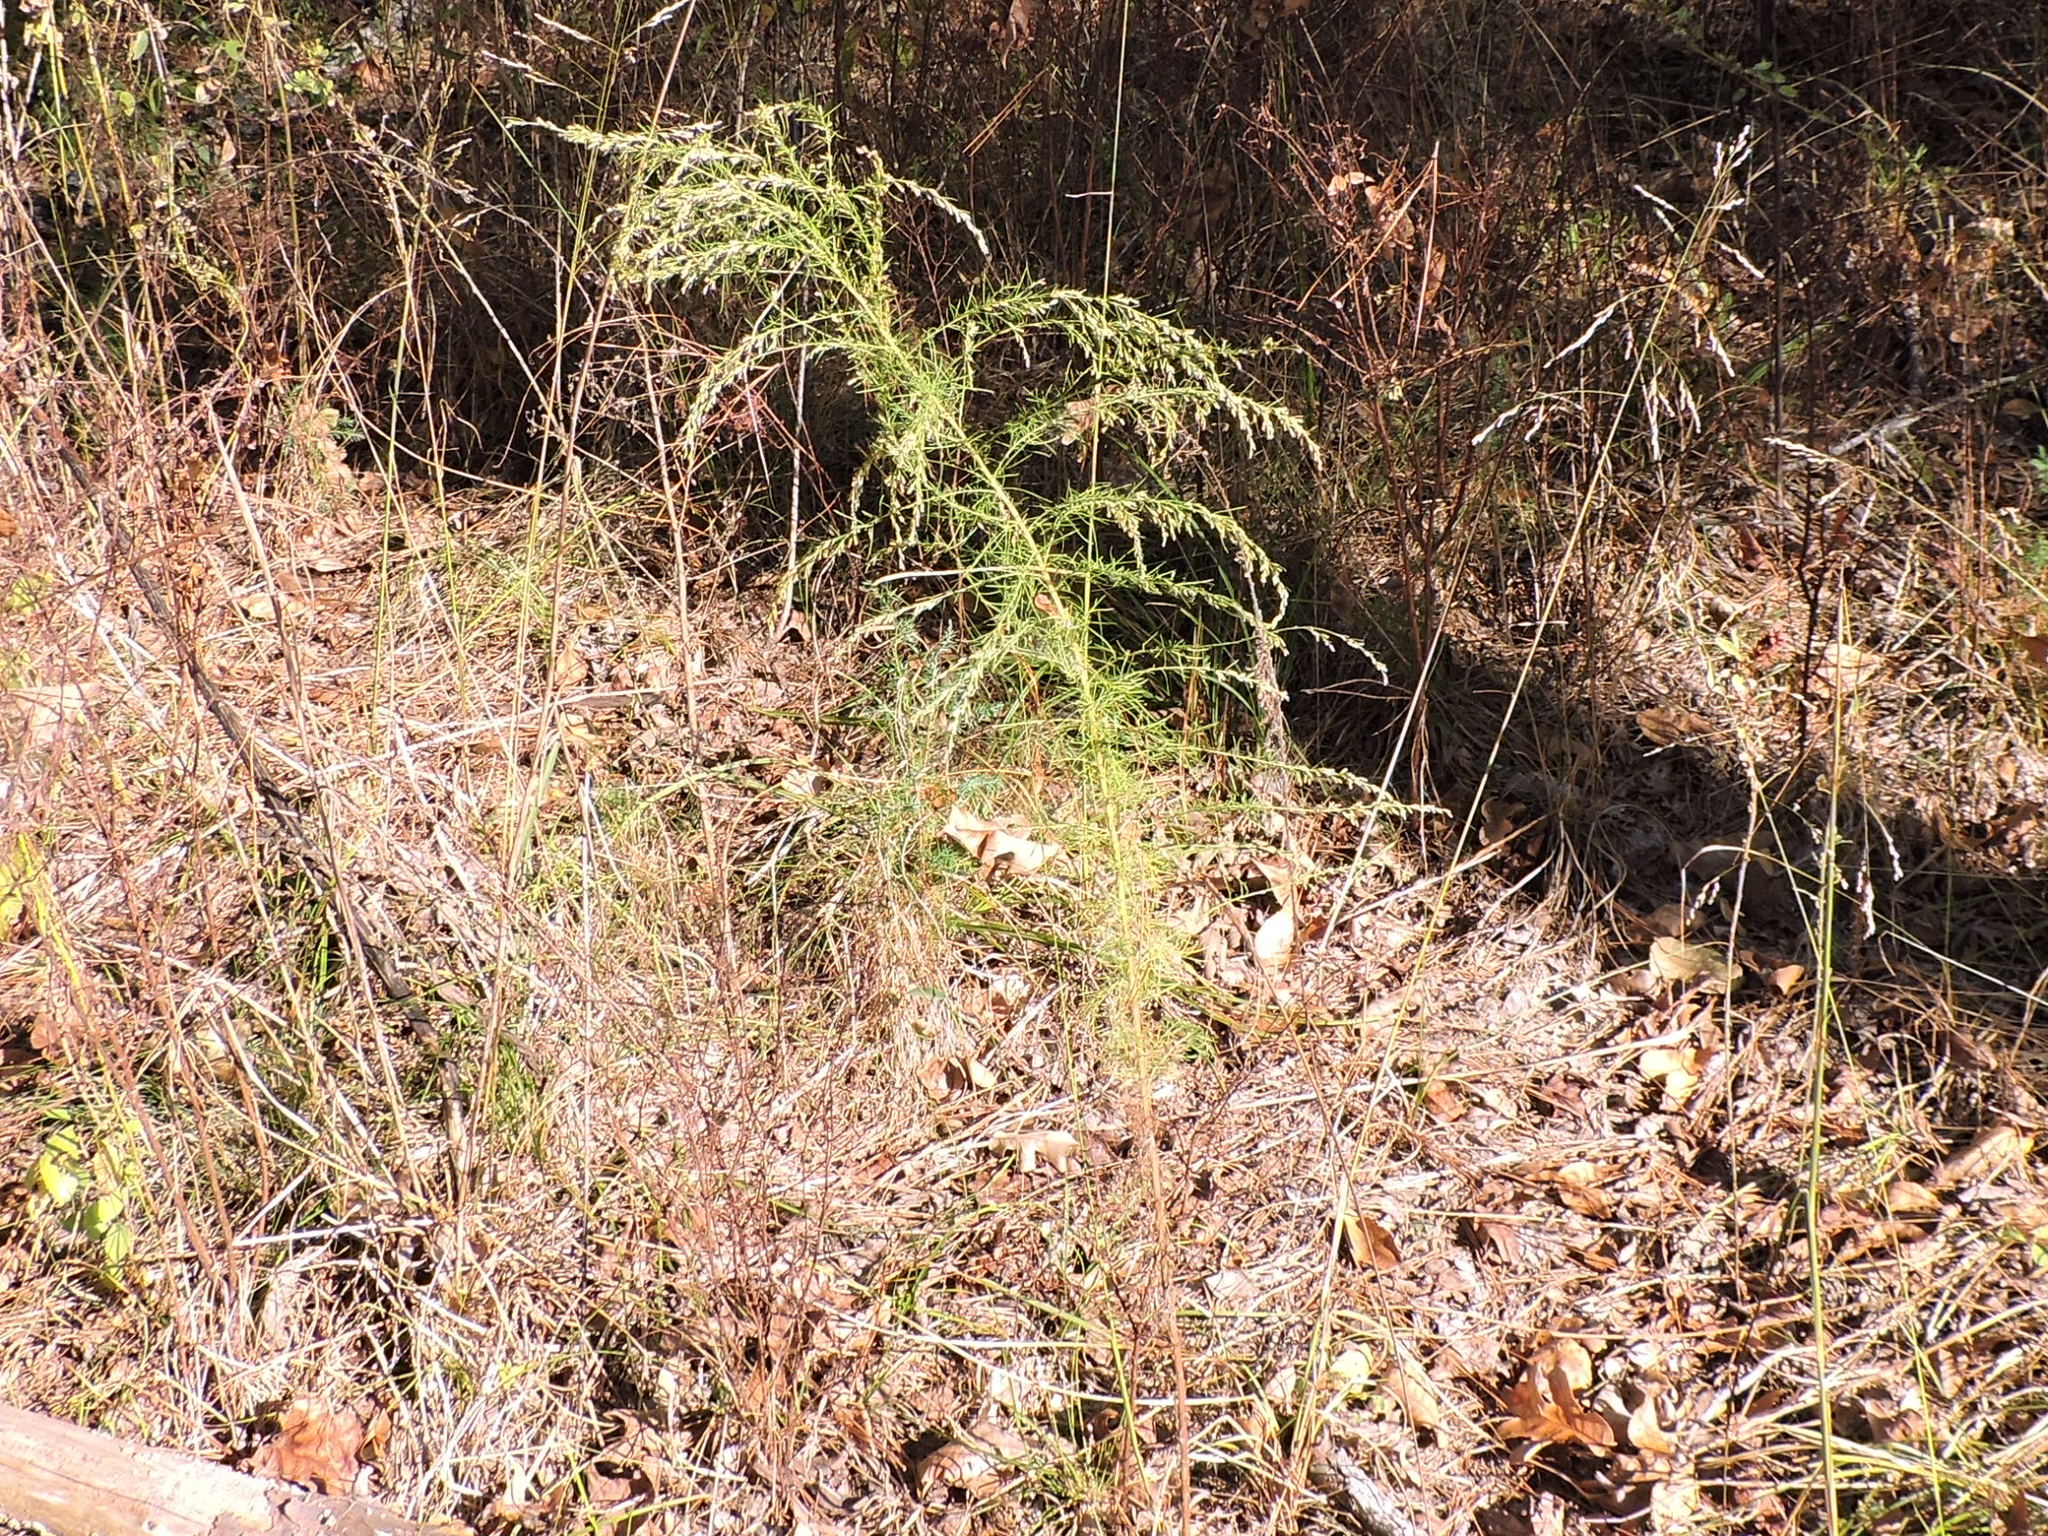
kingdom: Plantae
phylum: Tracheophyta
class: Magnoliopsida
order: Asterales
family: Asteraceae
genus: Eupatorium
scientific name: Eupatorium capillifolium
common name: Dog-fennel
